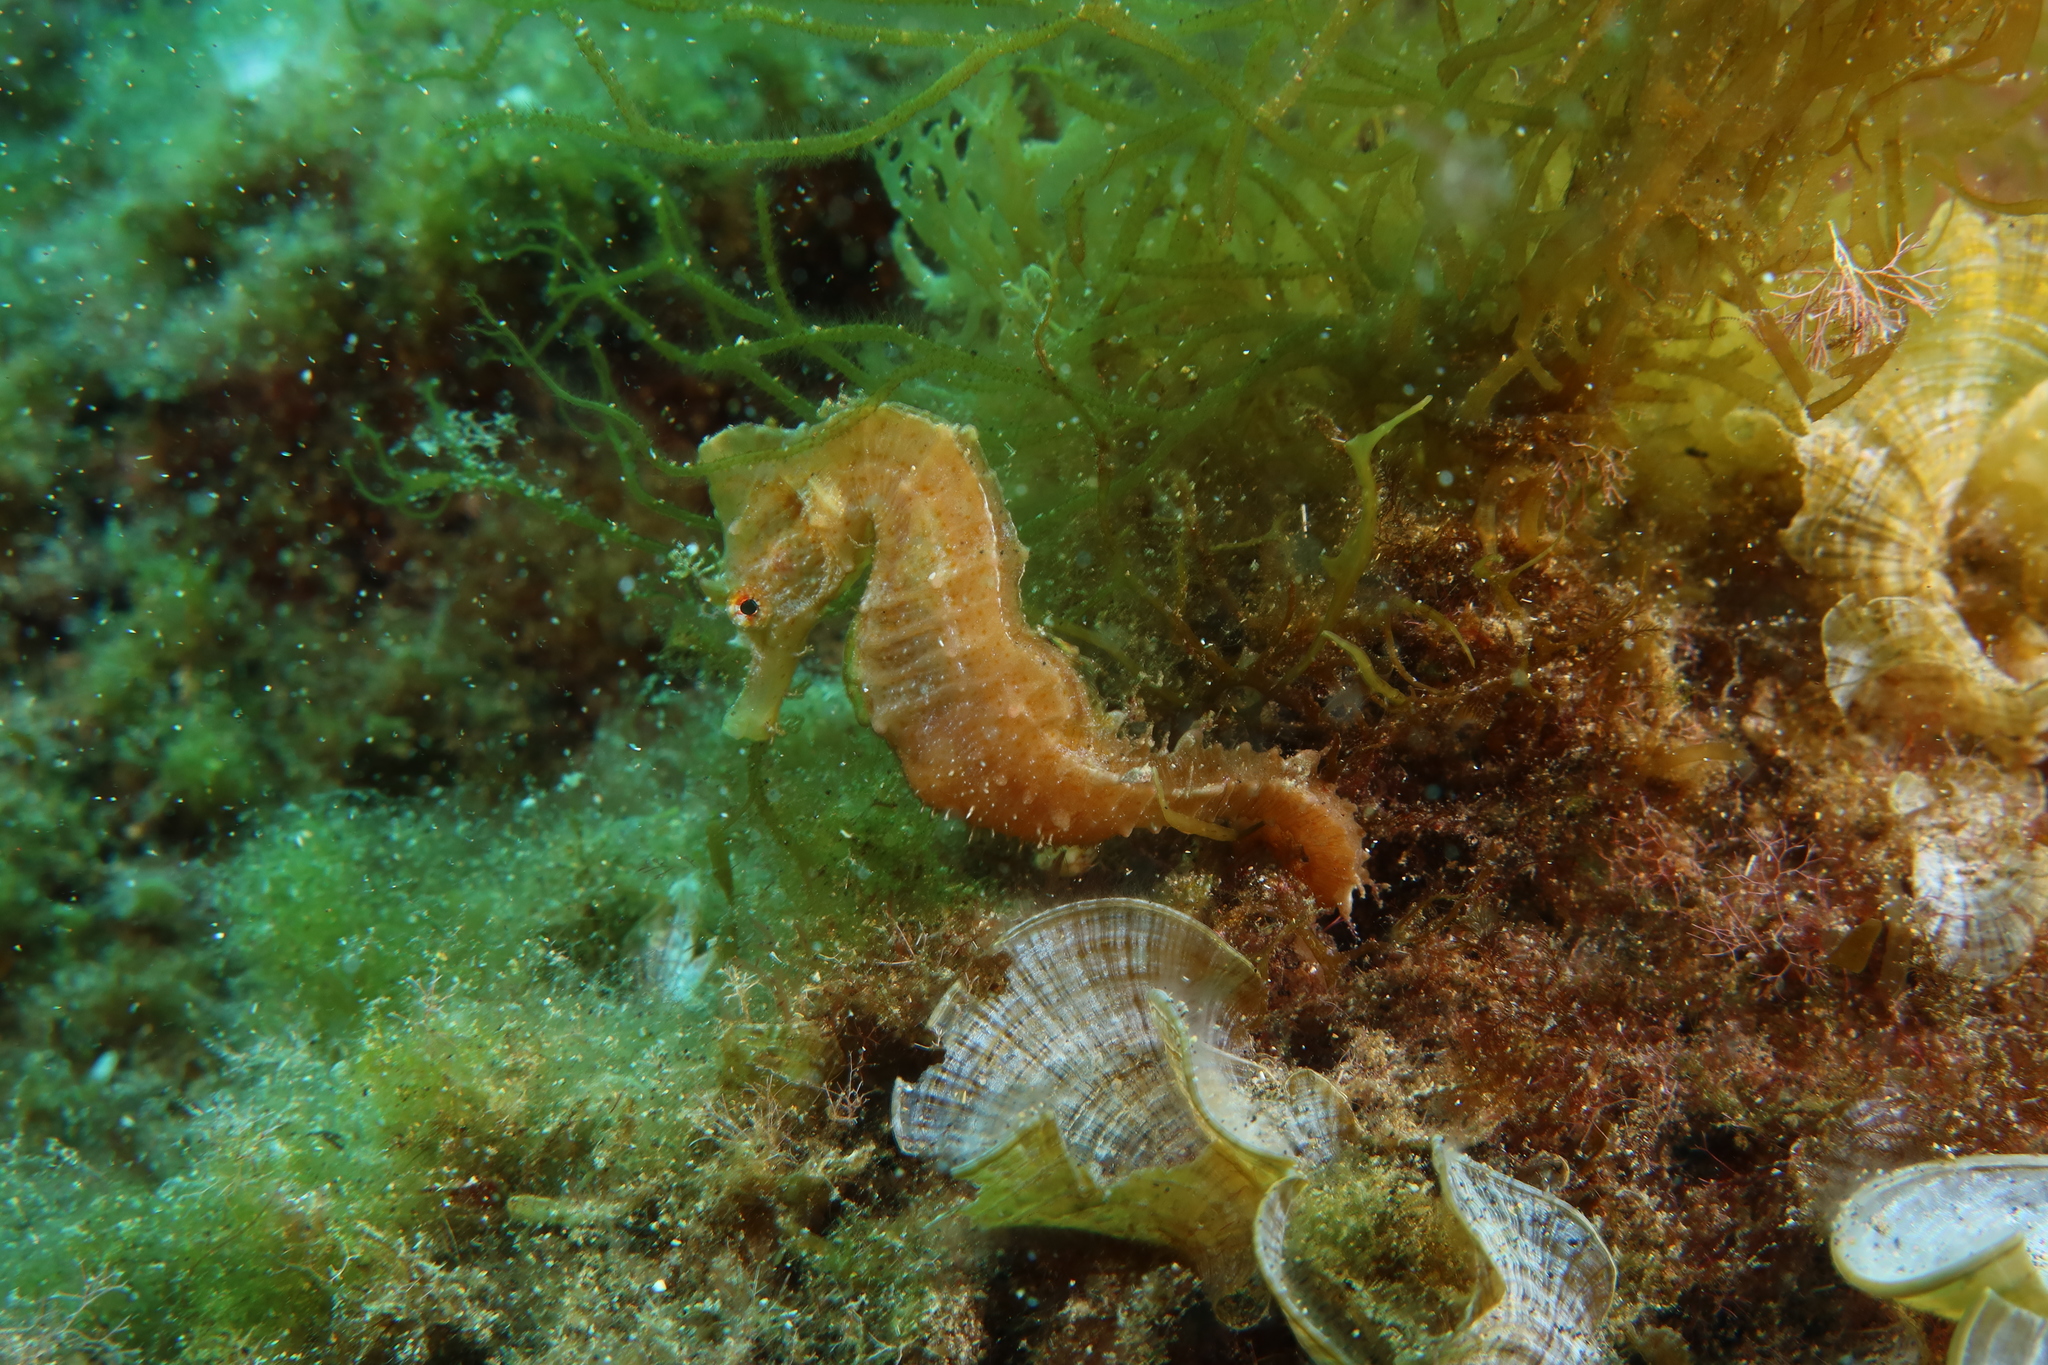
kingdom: Animalia
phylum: Chordata
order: Syngnathiformes
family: Syngnathidae
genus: Hippocampus
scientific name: Hippocampus hippocampus
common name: Short-snouted seahorse
